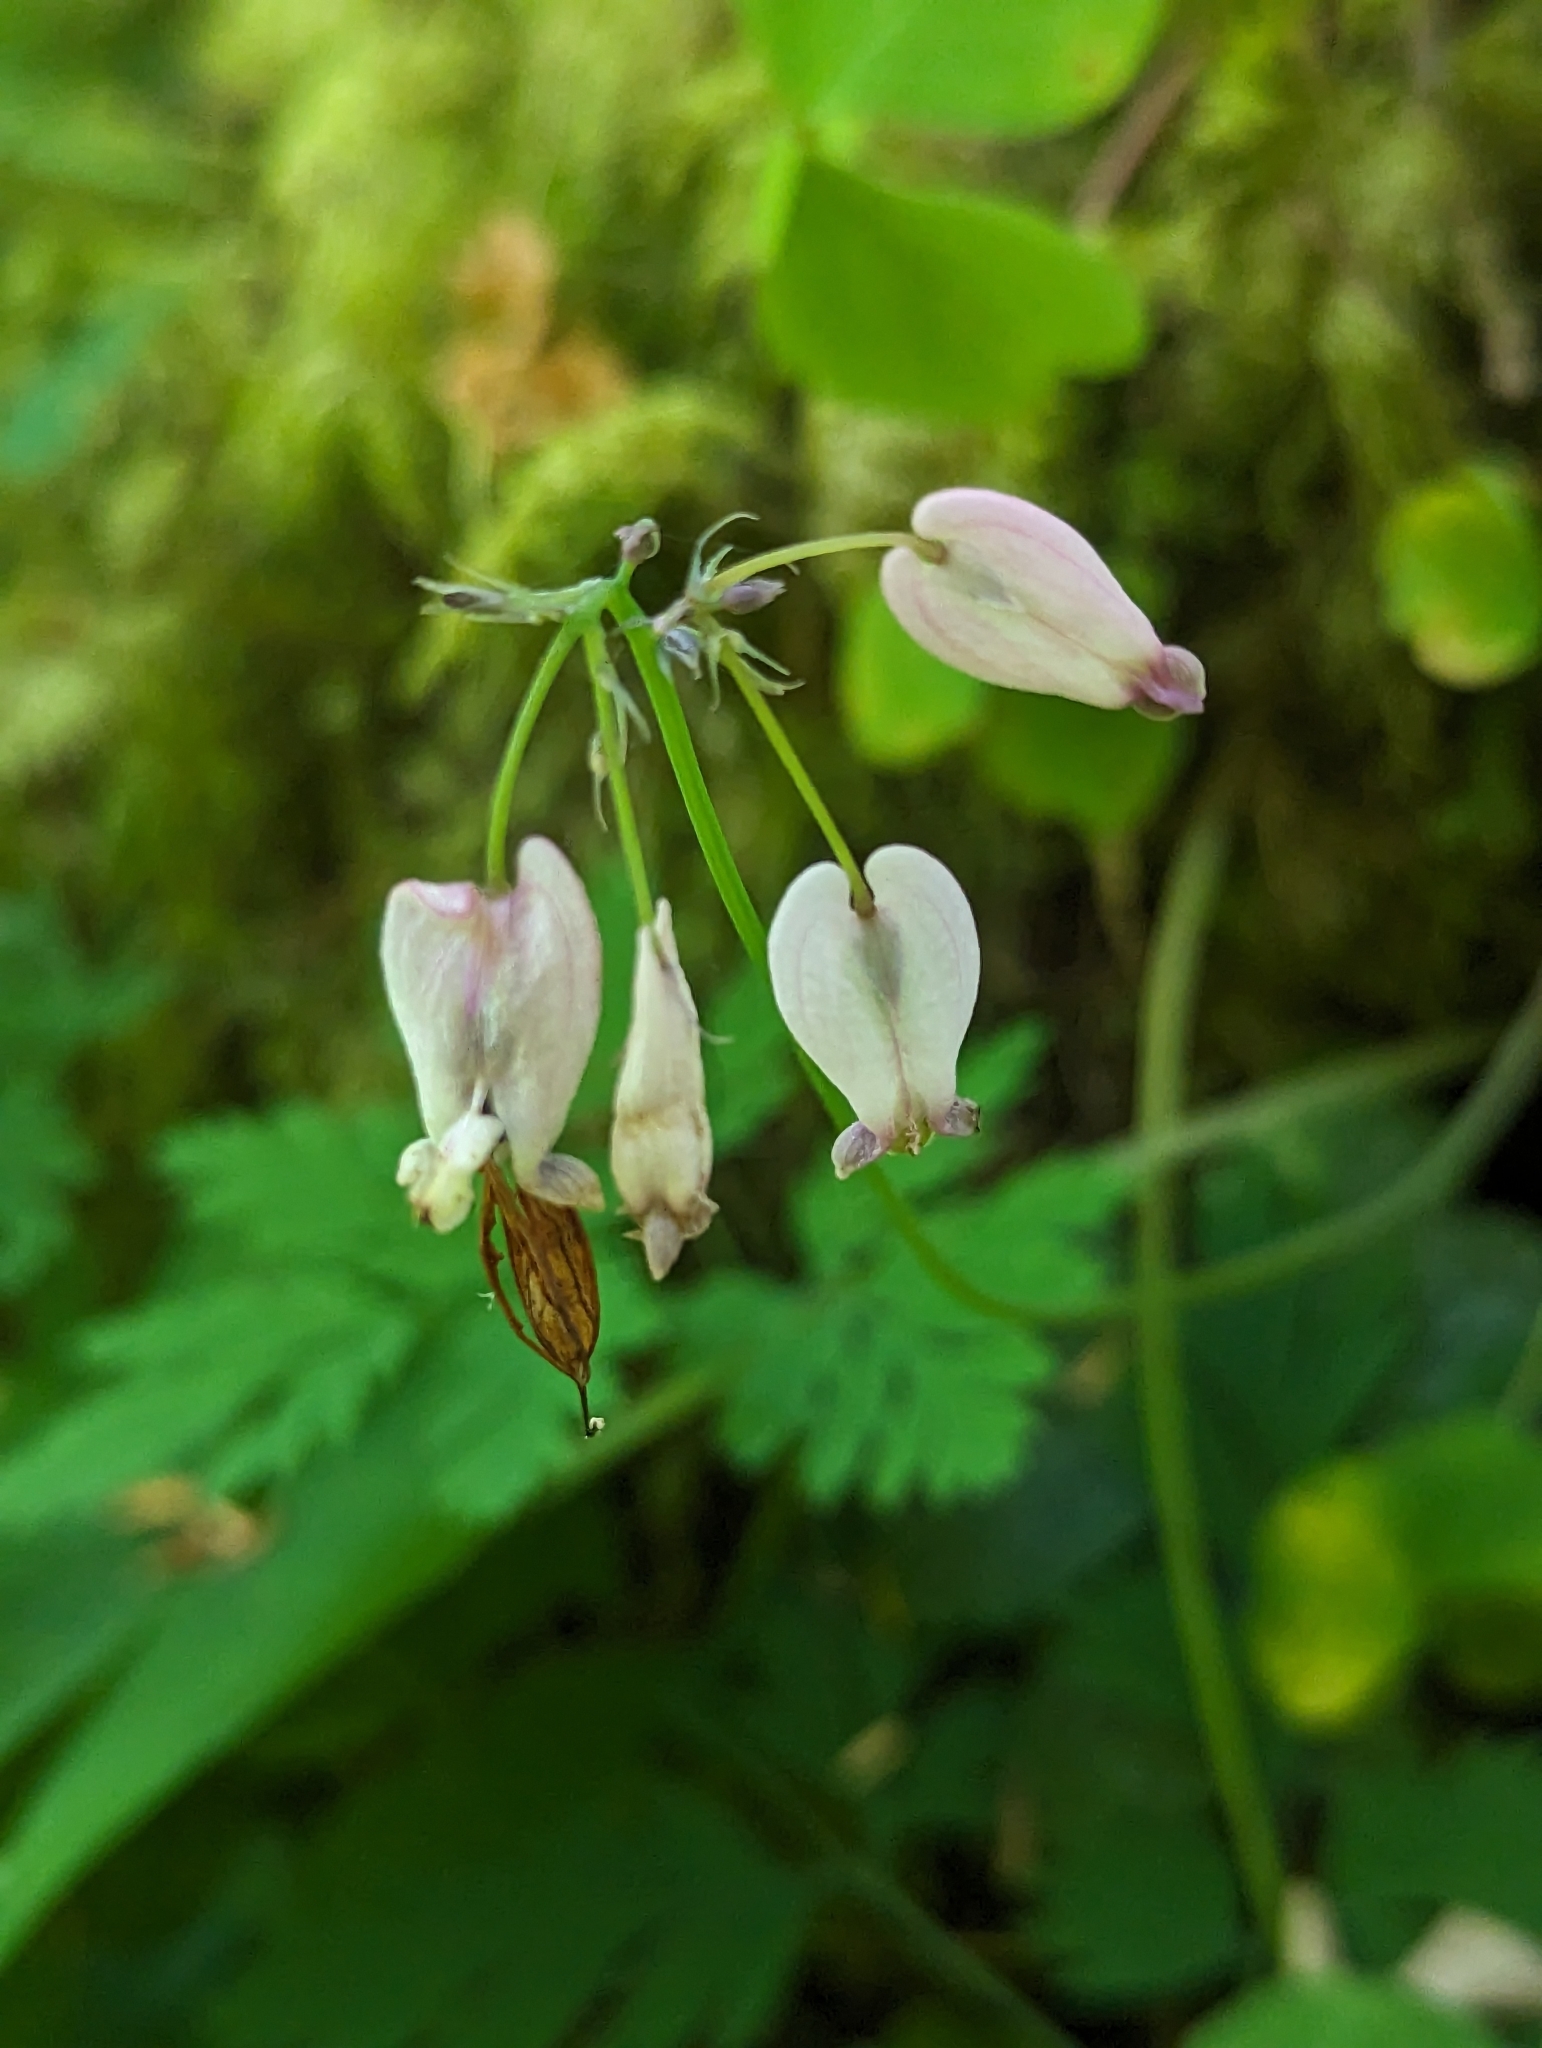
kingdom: Plantae
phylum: Tracheophyta
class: Magnoliopsida
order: Ranunculales
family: Papaveraceae
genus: Dicentra
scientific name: Dicentra formosa
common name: Bleeding-heart
